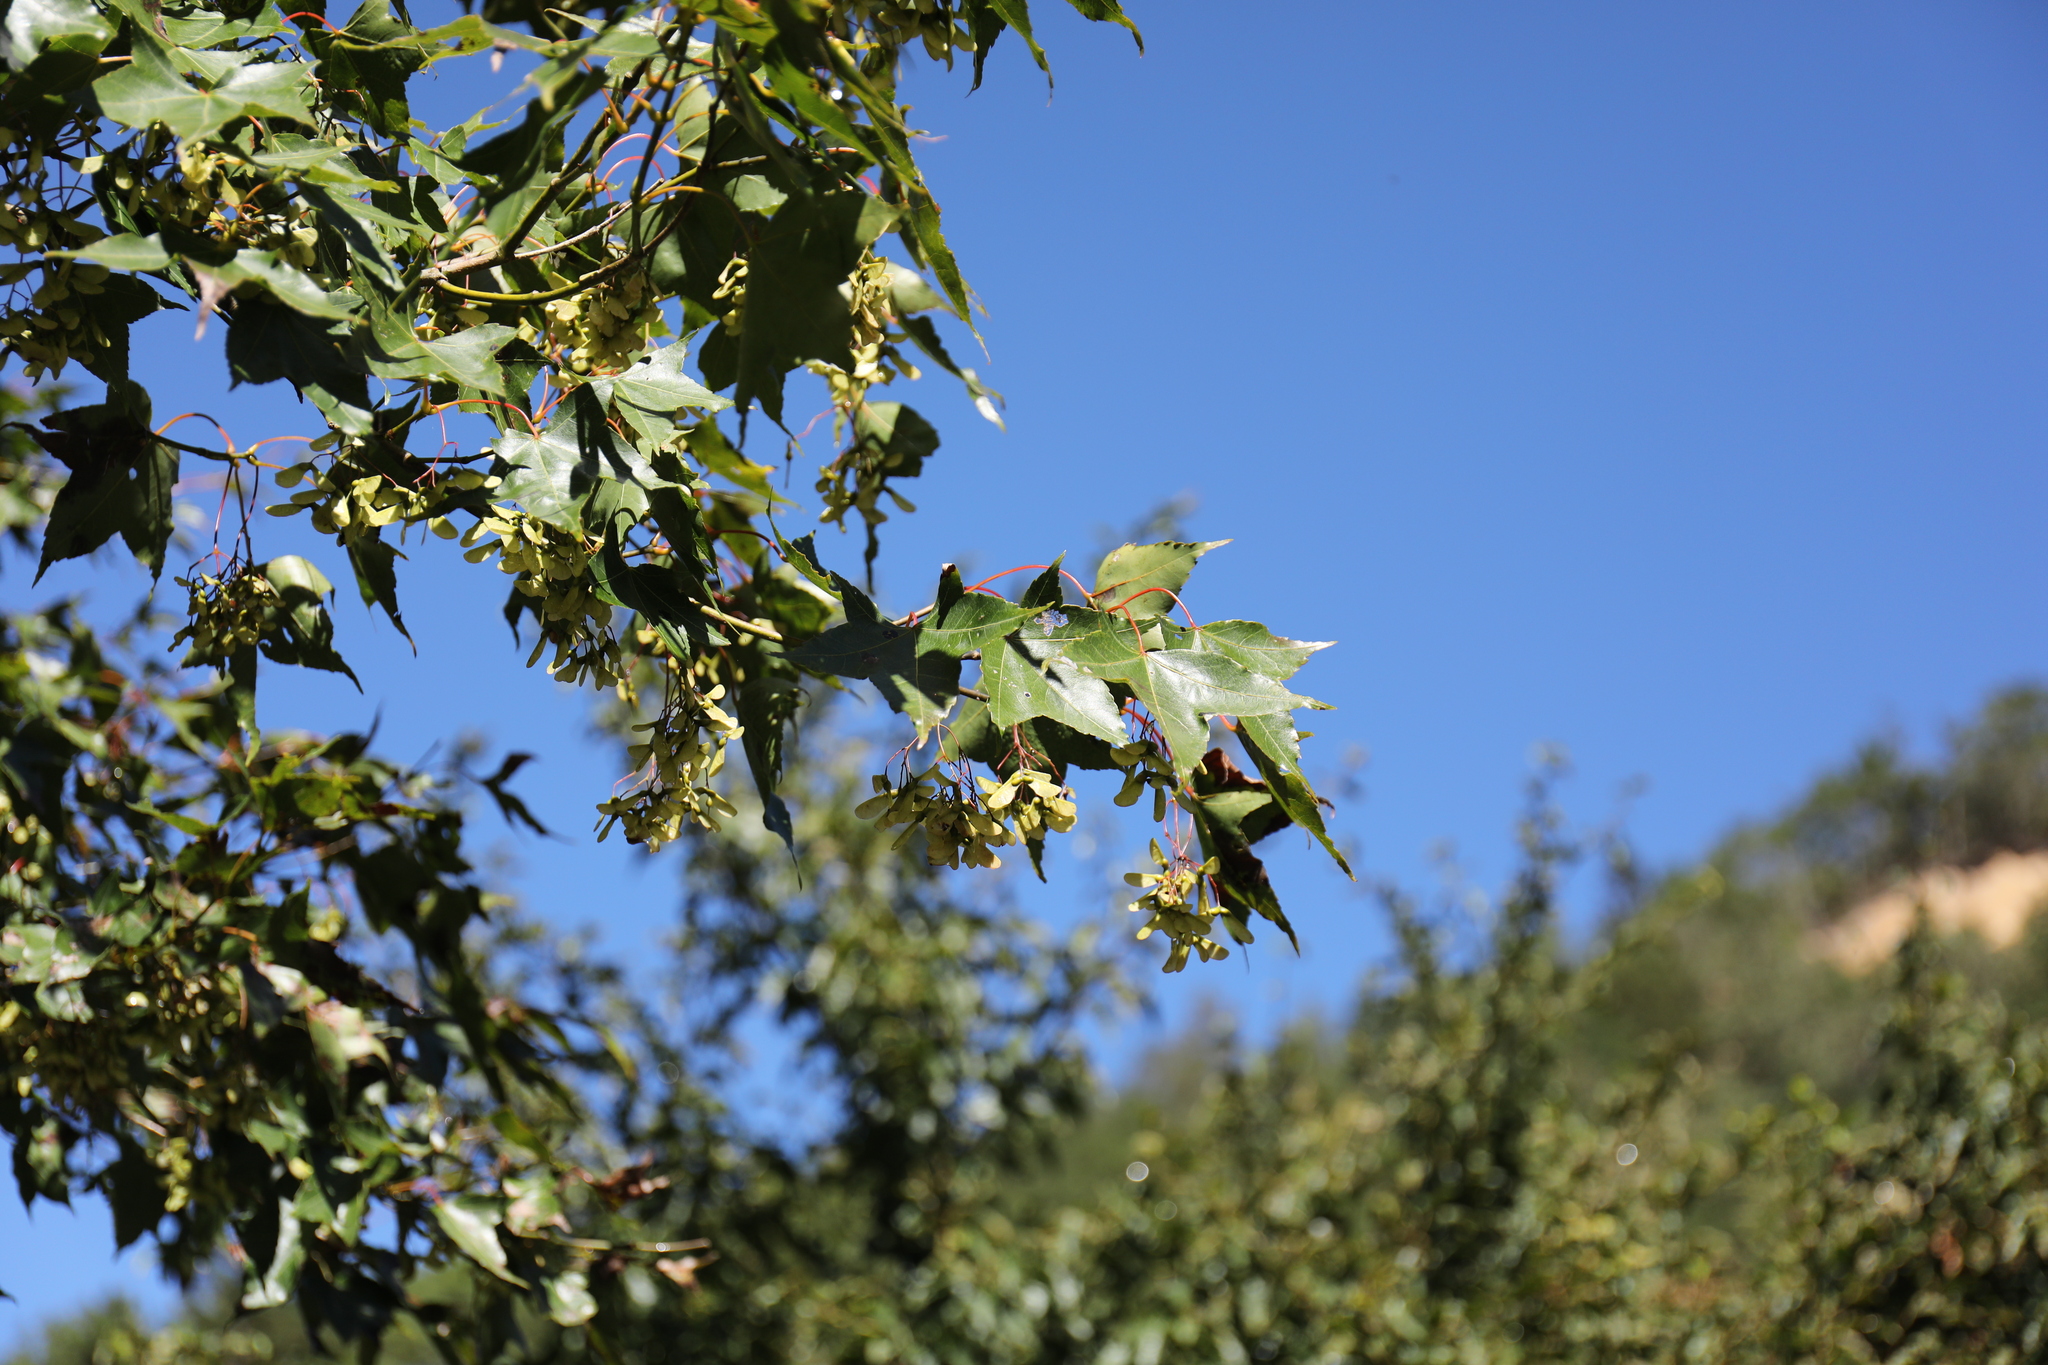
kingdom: Plantae
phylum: Tracheophyta
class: Magnoliopsida
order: Sapindales
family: Sapindaceae
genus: Acer
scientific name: Acer serrulatum
